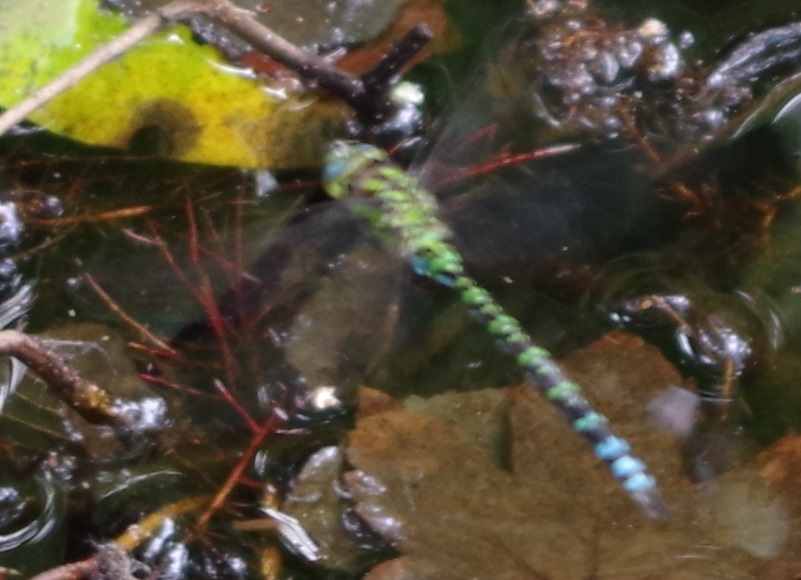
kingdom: Animalia
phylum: Arthropoda
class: Insecta
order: Odonata
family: Aeshnidae
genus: Aeshna
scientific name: Aeshna cyanea
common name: Southern hawker
